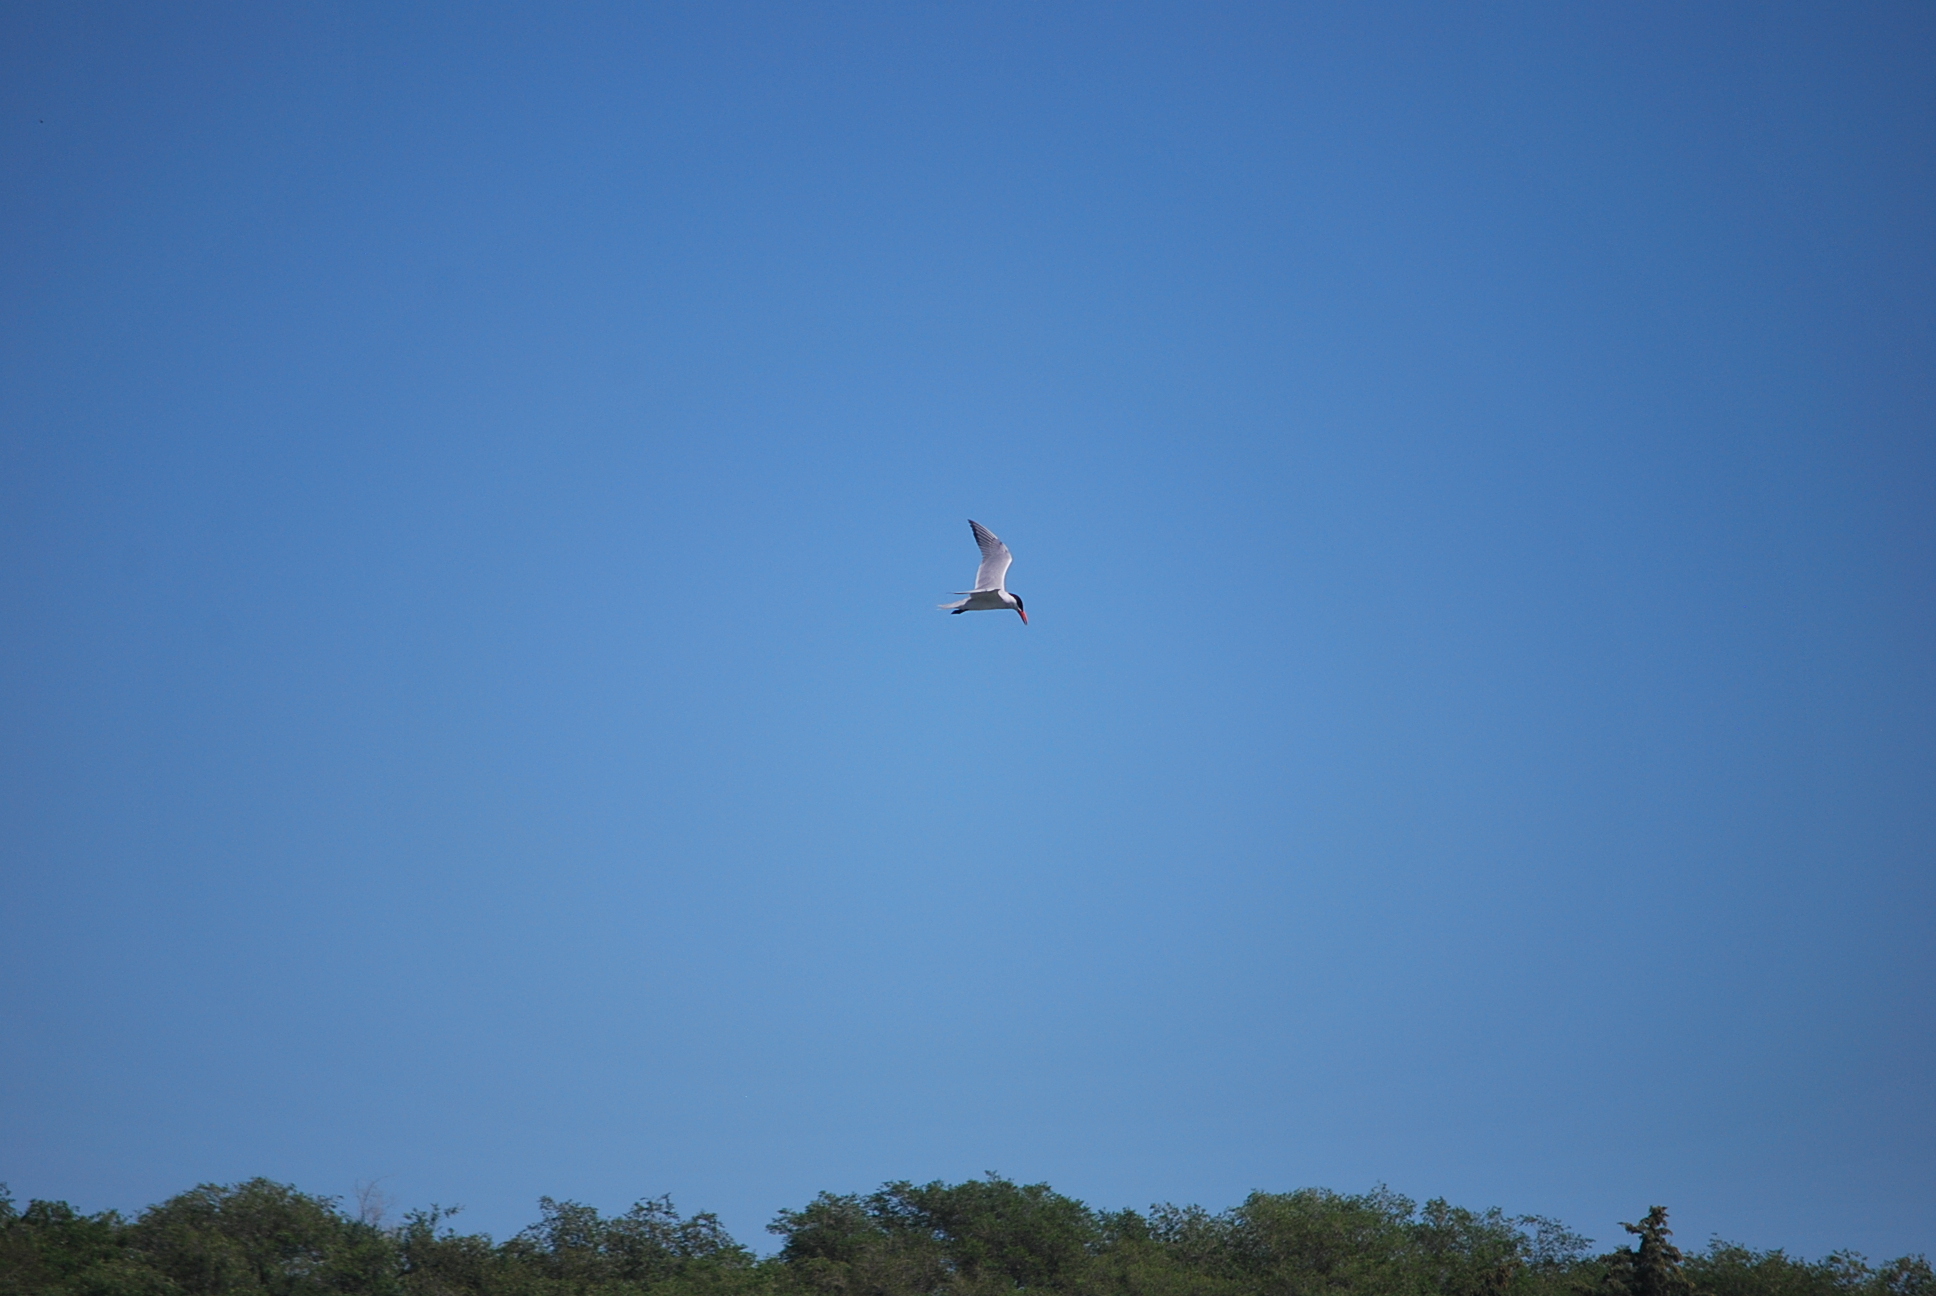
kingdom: Animalia
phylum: Chordata
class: Aves
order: Charadriiformes
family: Laridae
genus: Hydroprogne
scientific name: Hydroprogne caspia
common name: Caspian tern
